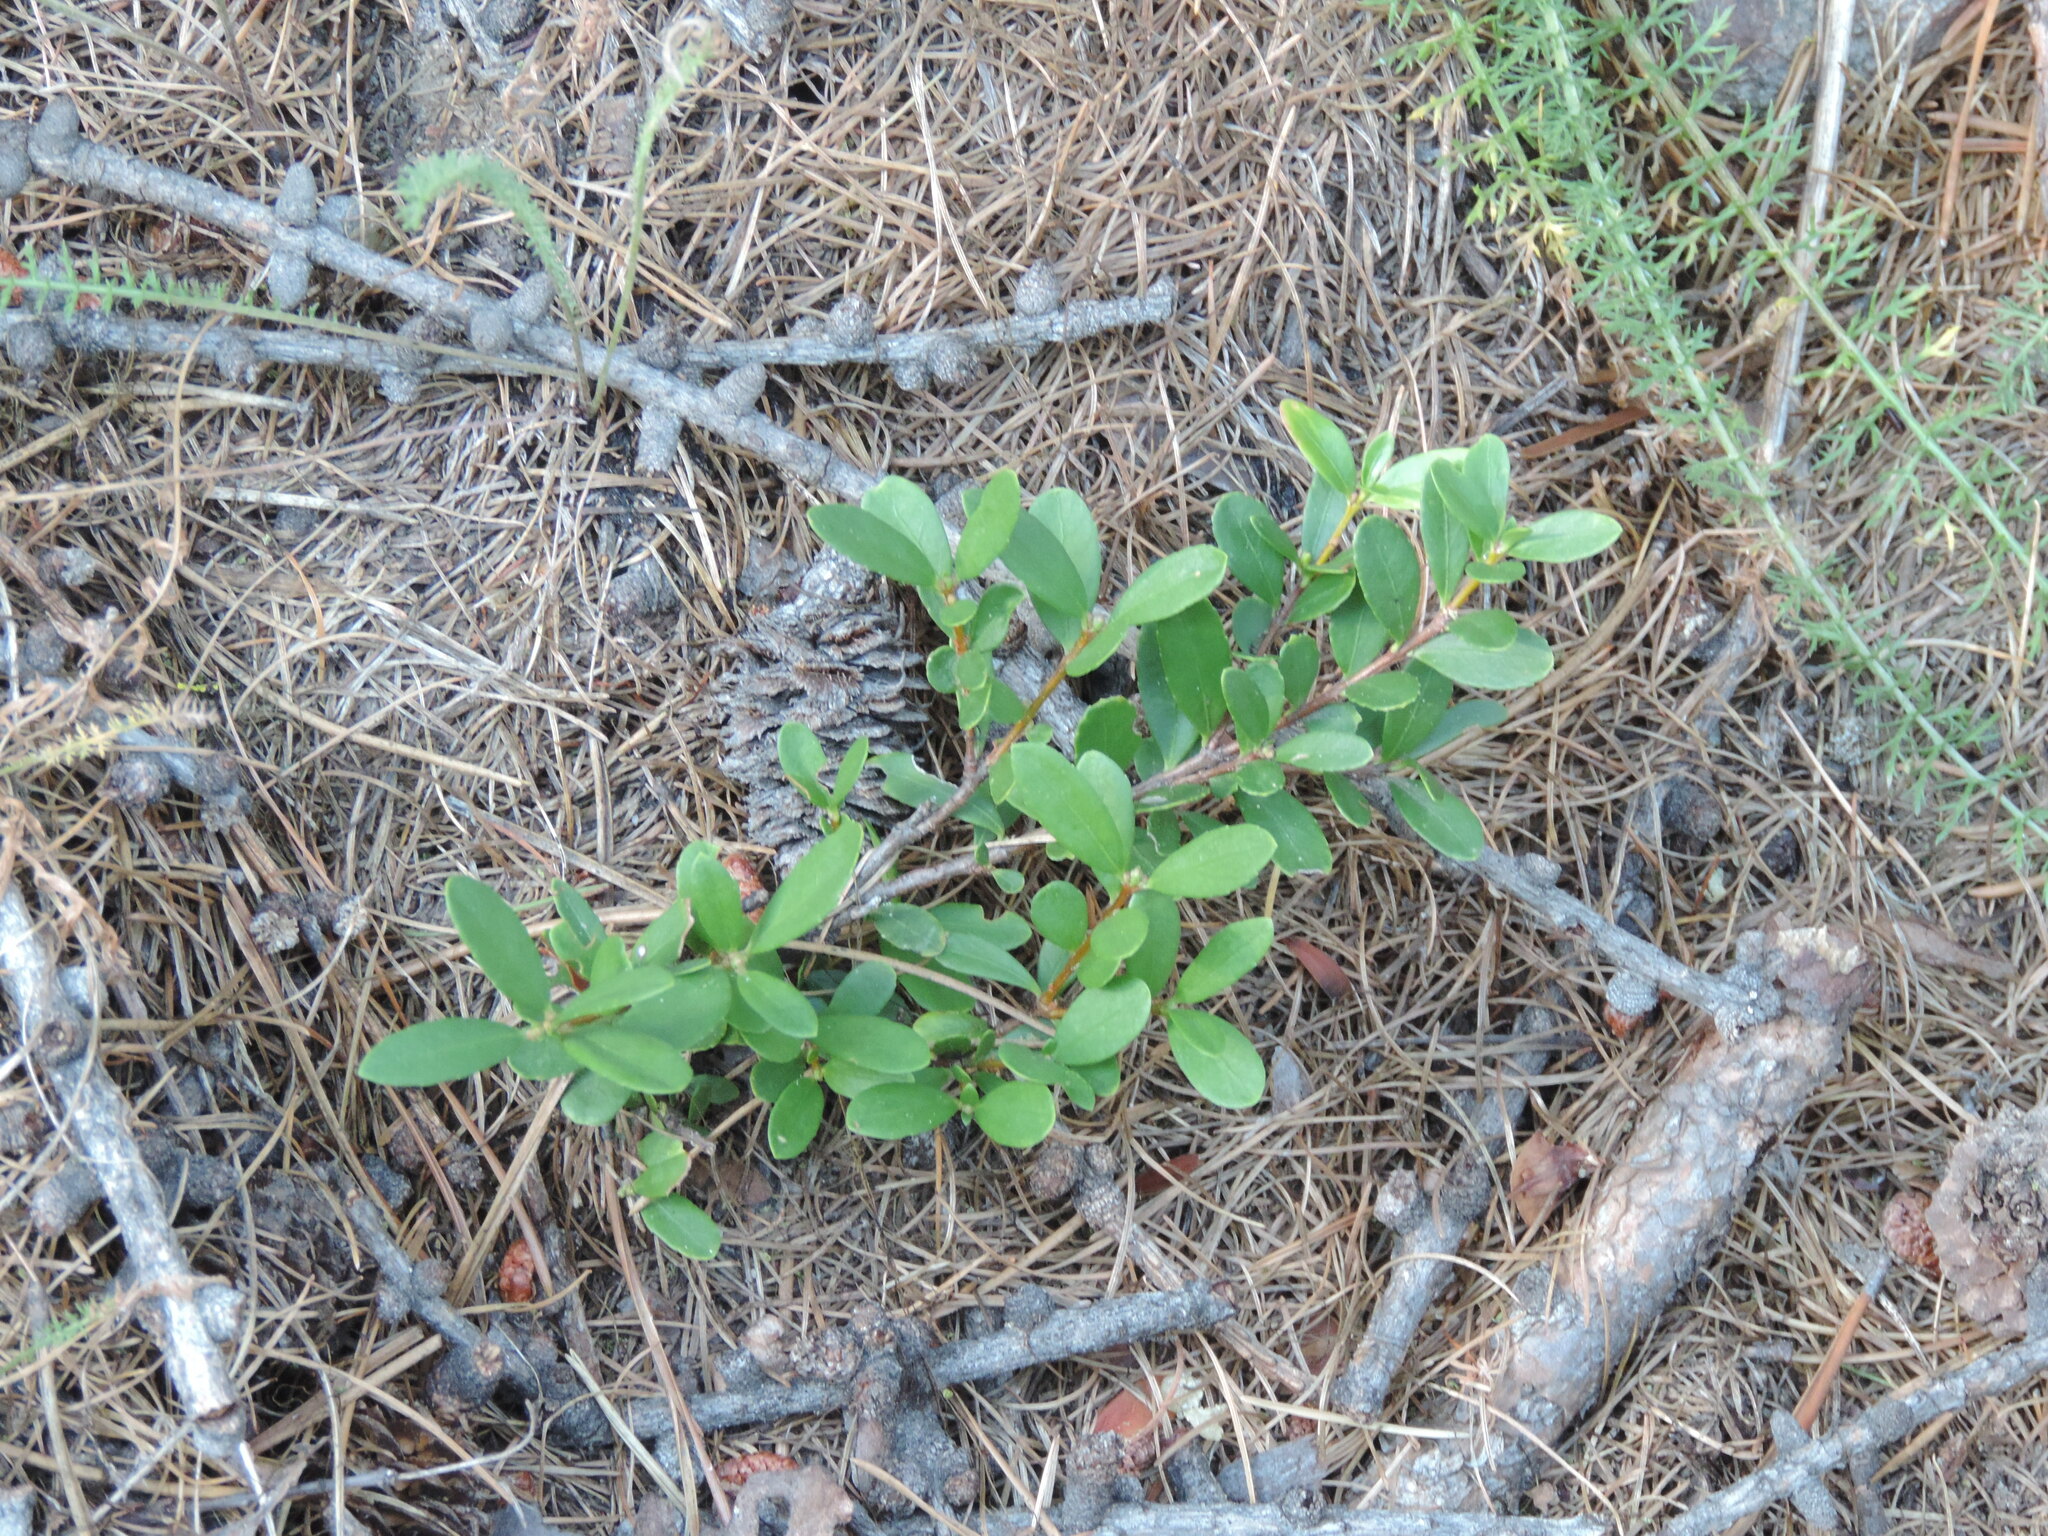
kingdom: Plantae
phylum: Tracheophyta
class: Magnoliopsida
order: Celastrales
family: Celastraceae
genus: Paxistima
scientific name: Paxistima myrsinites
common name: Mountain-lover
